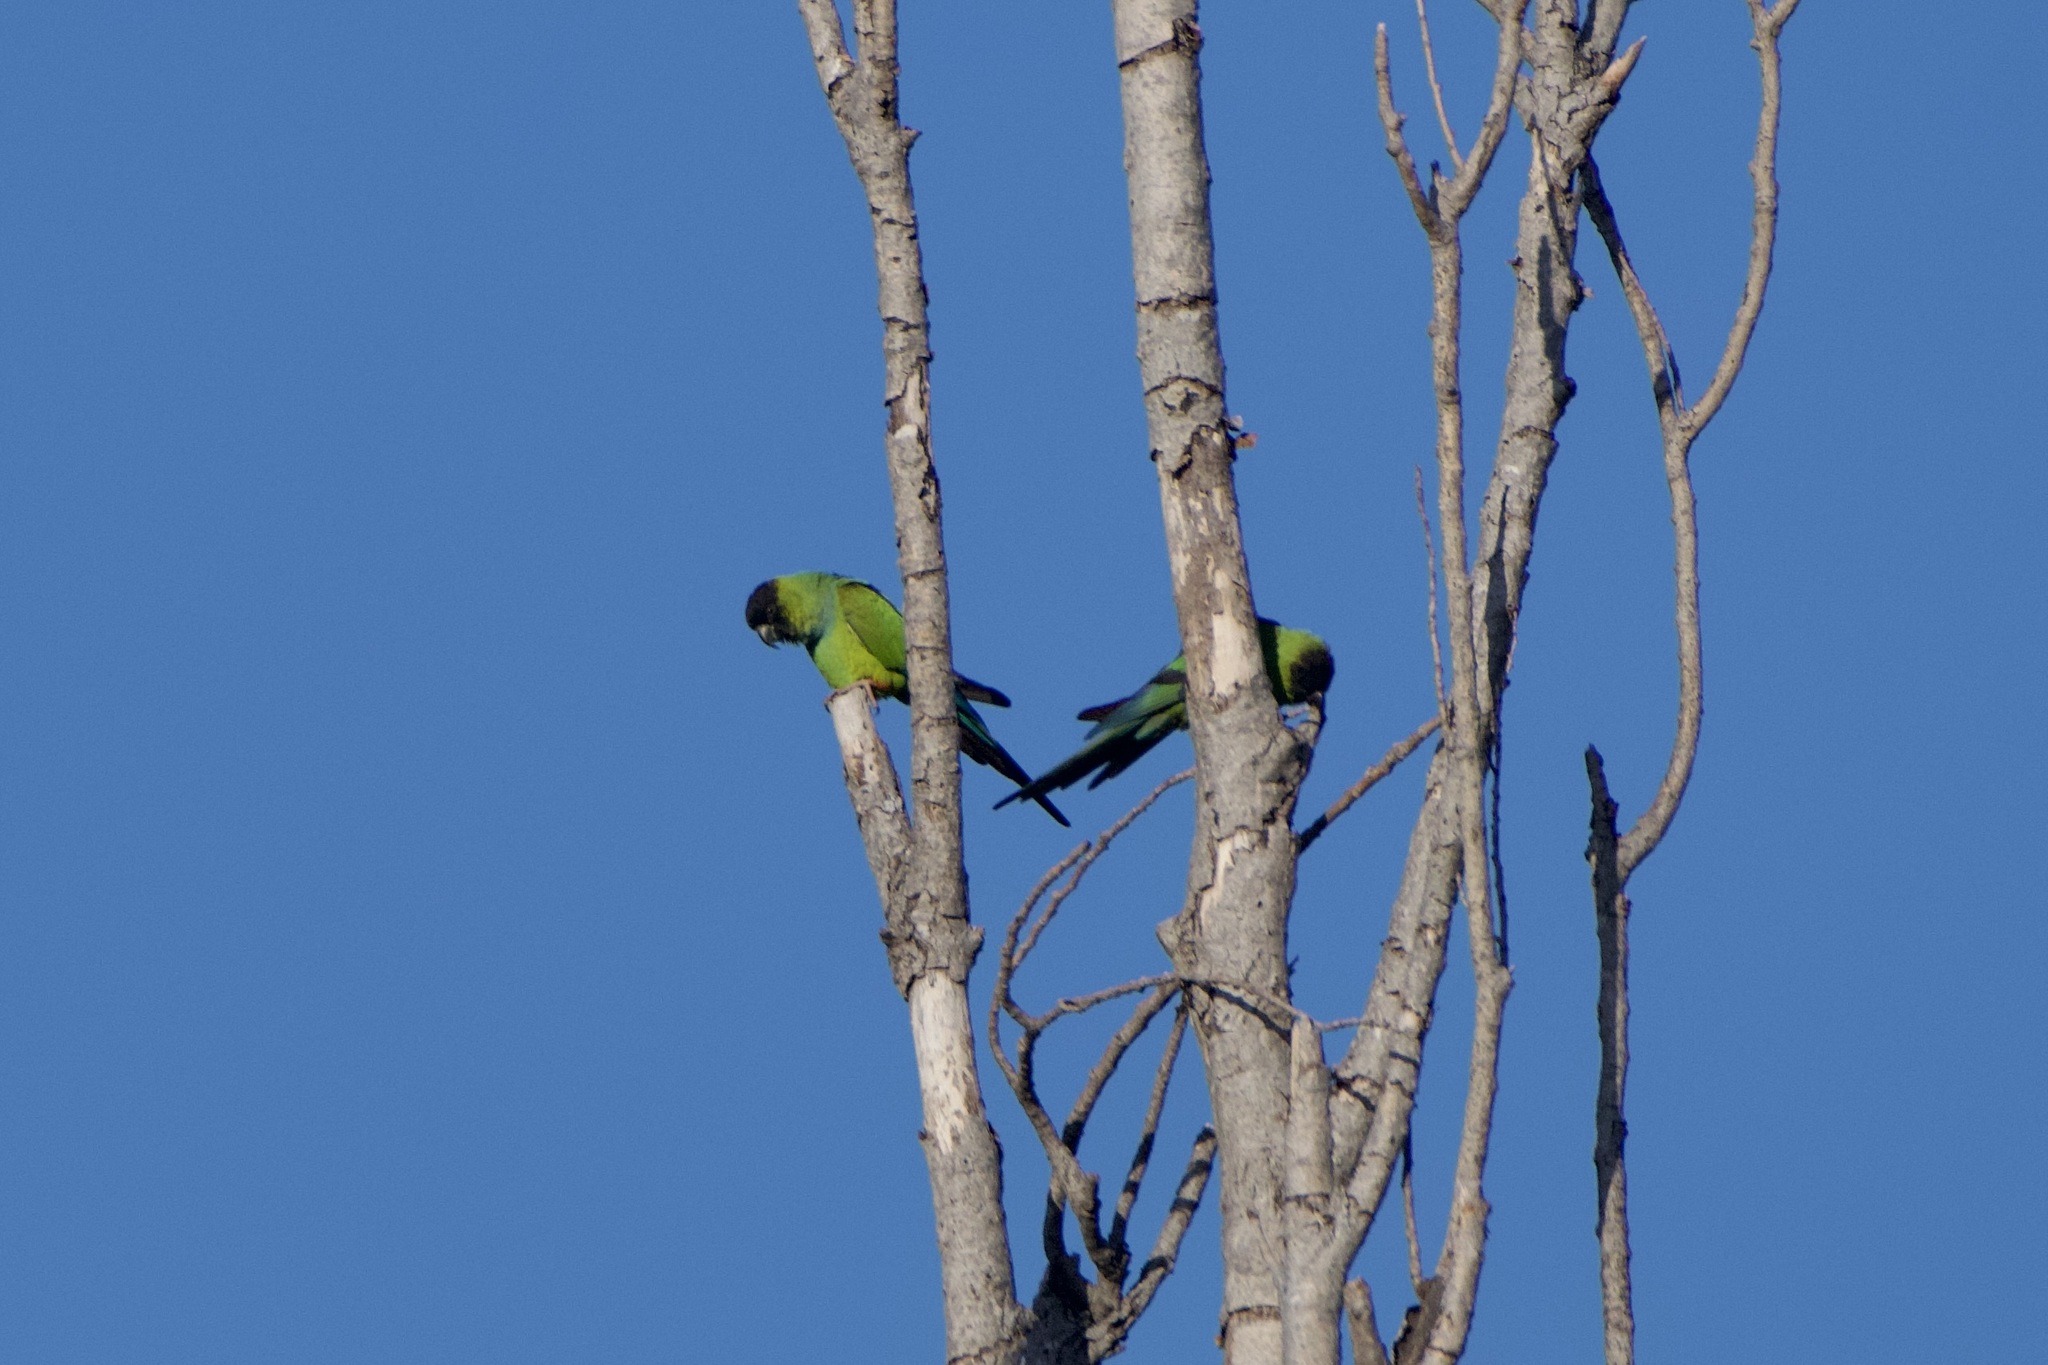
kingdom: Animalia
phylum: Chordata
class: Aves
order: Psittaciformes
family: Psittacidae
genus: Nandayus
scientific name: Nandayus nenday
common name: Nanday parakeet
